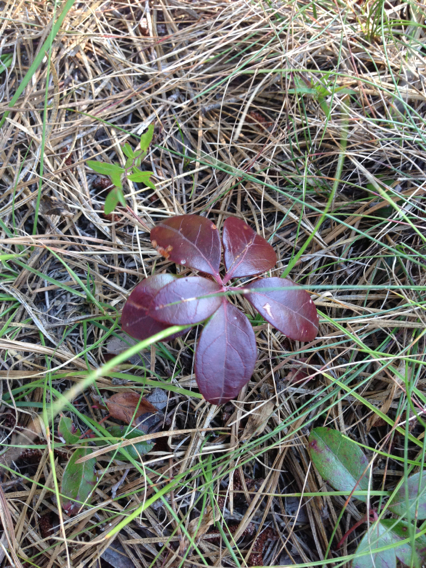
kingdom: Plantae
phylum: Tracheophyta
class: Magnoliopsida
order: Ericales
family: Ericaceae
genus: Gaultheria
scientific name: Gaultheria procumbens
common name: Checkerberry
